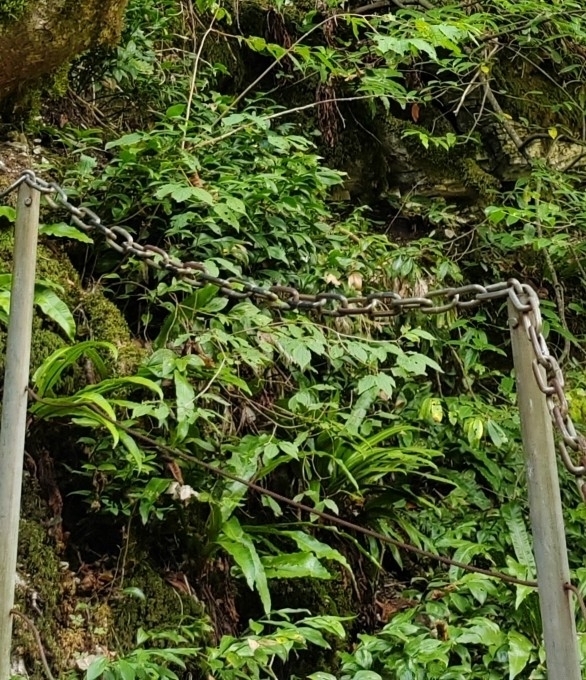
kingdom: Plantae
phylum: Tracheophyta
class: Polypodiopsida
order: Polypodiales
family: Aspleniaceae
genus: Asplenium
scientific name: Asplenium scolopendrium
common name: Hart's-tongue fern
